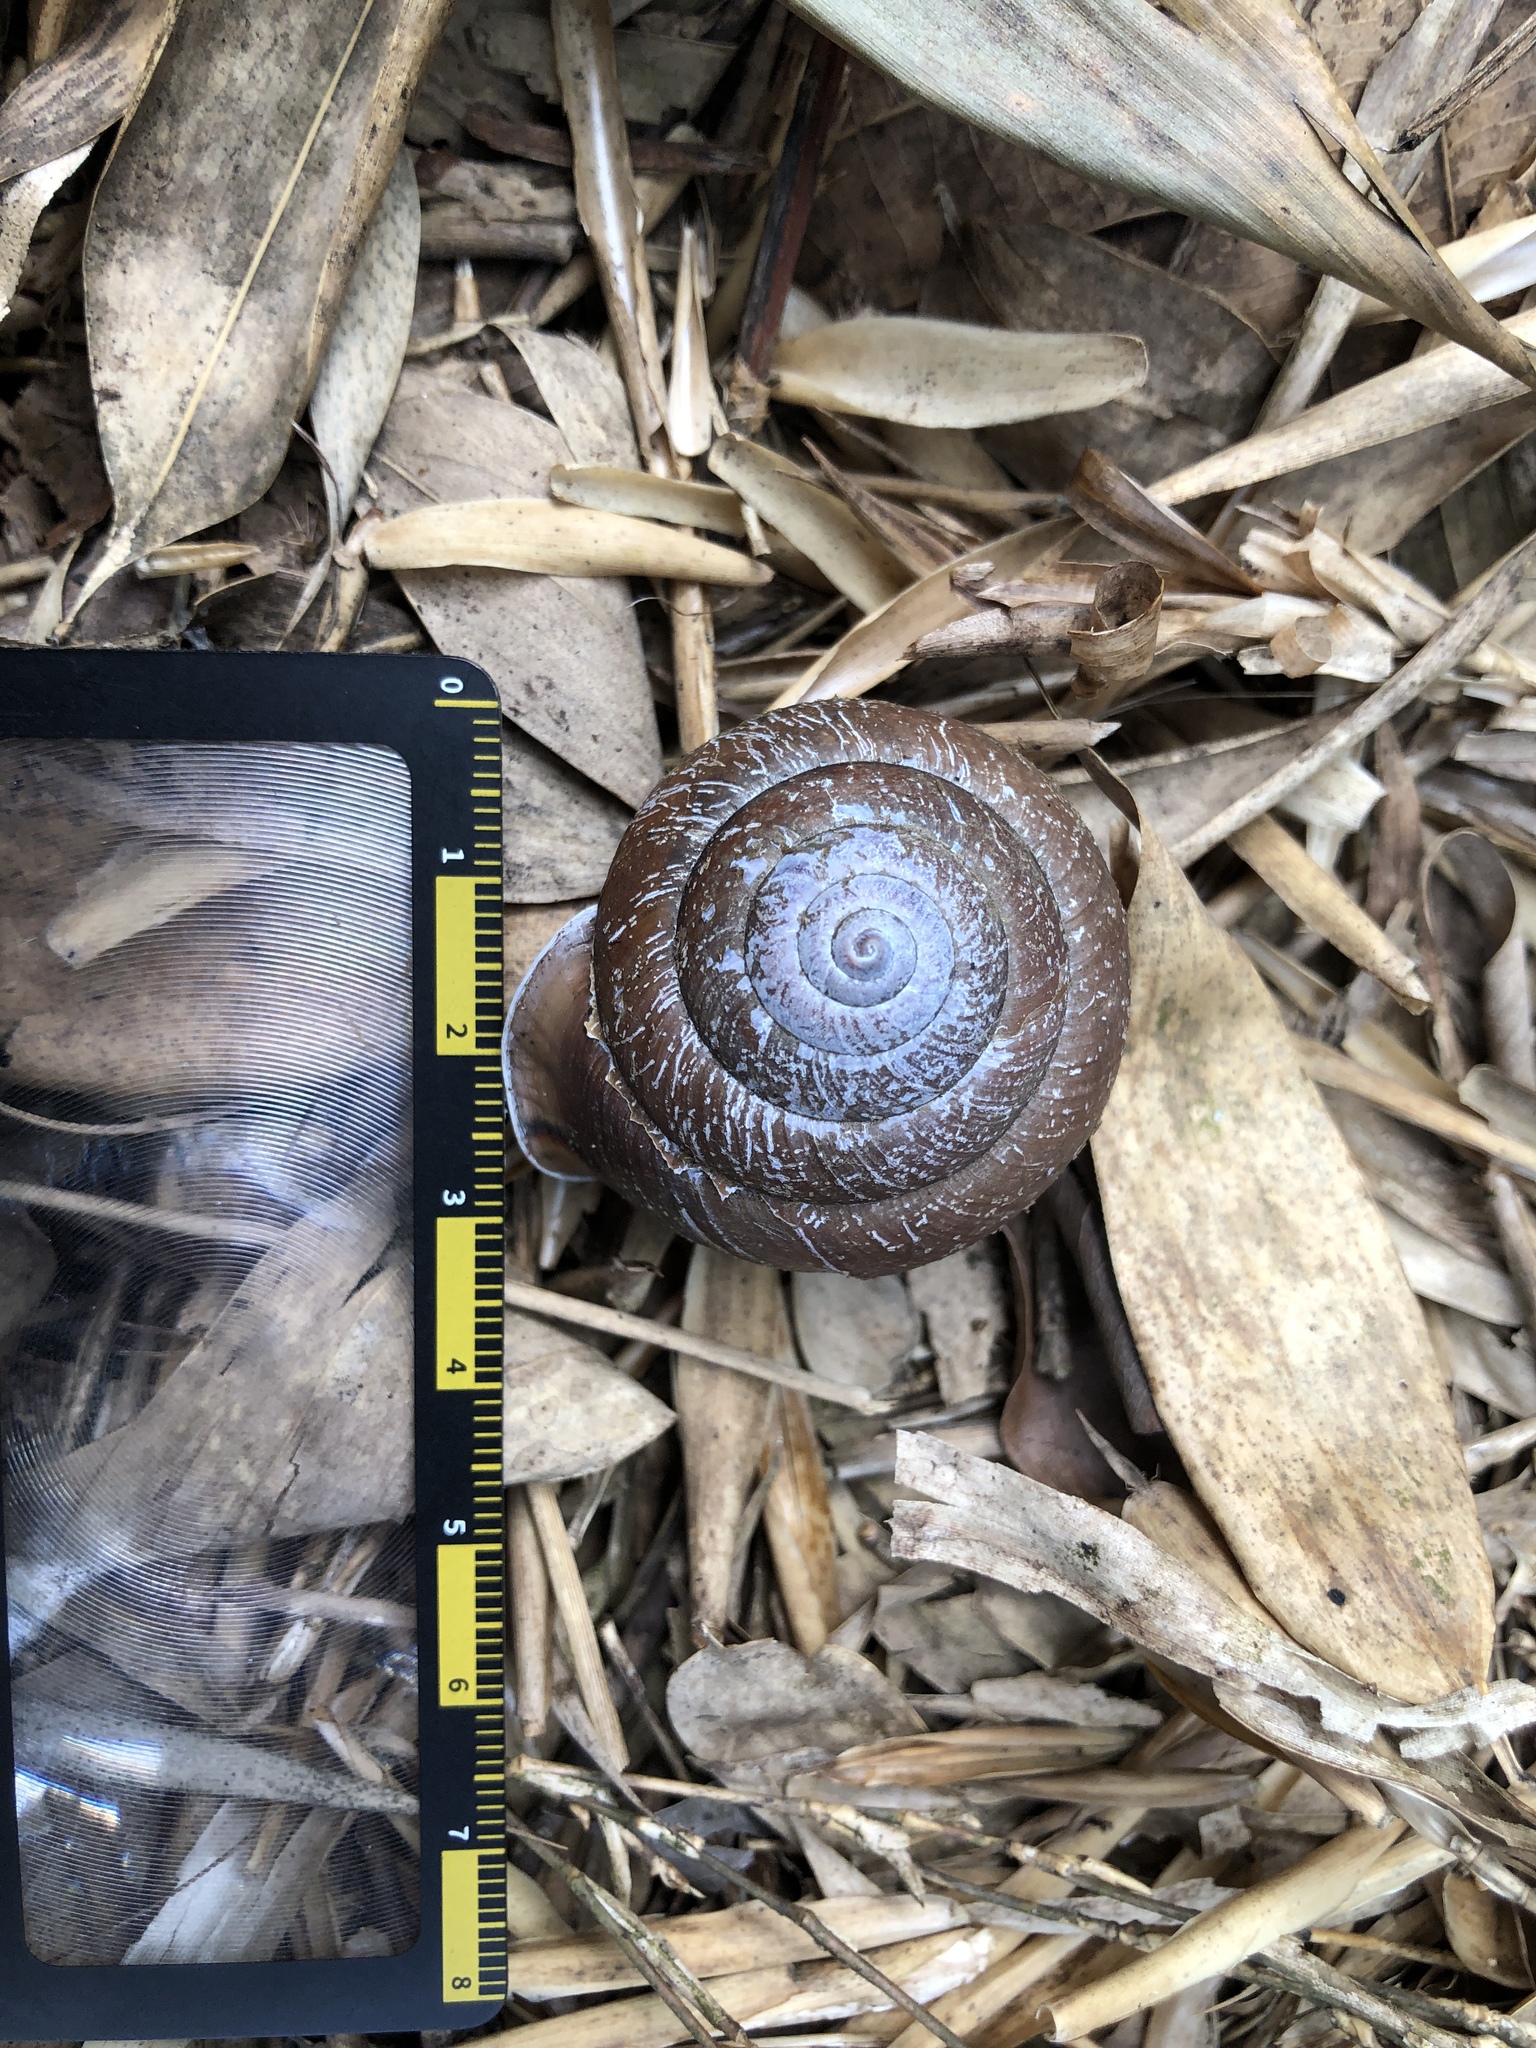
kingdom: Animalia
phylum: Mollusca
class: Gastropoda
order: Stylommatophora
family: Camaenidae
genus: Satsuma
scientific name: Satsuma
